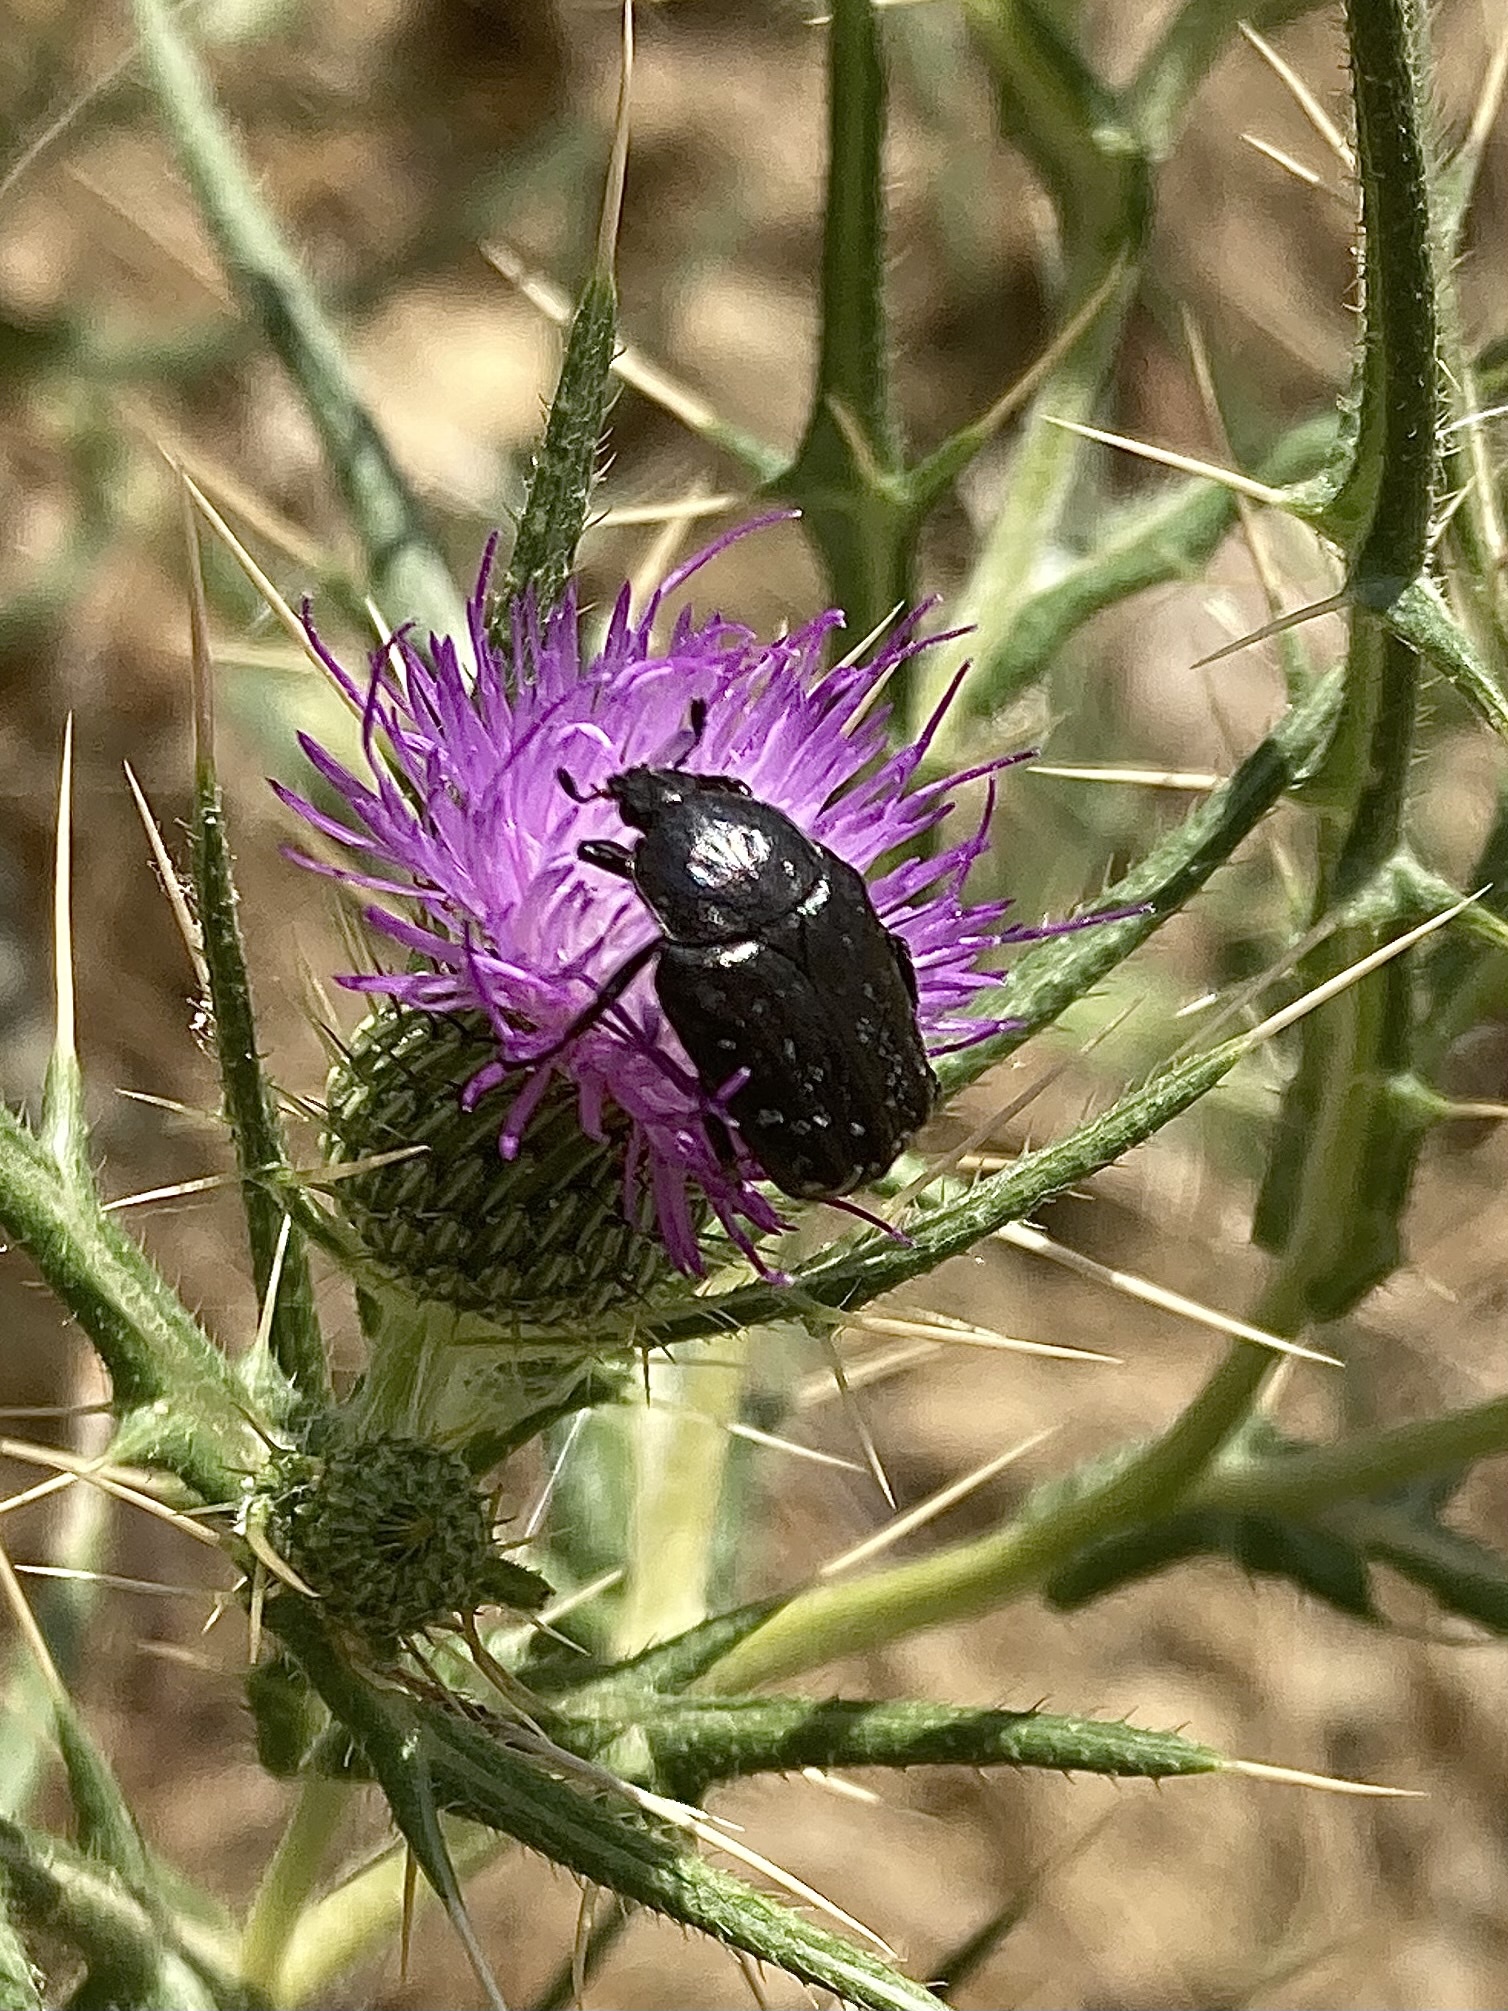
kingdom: Animalia
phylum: Arthropoda
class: Insecta
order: Coleoptera
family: Scarabaeidae
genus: Oxythyrea
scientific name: Oxythyrea funesta
